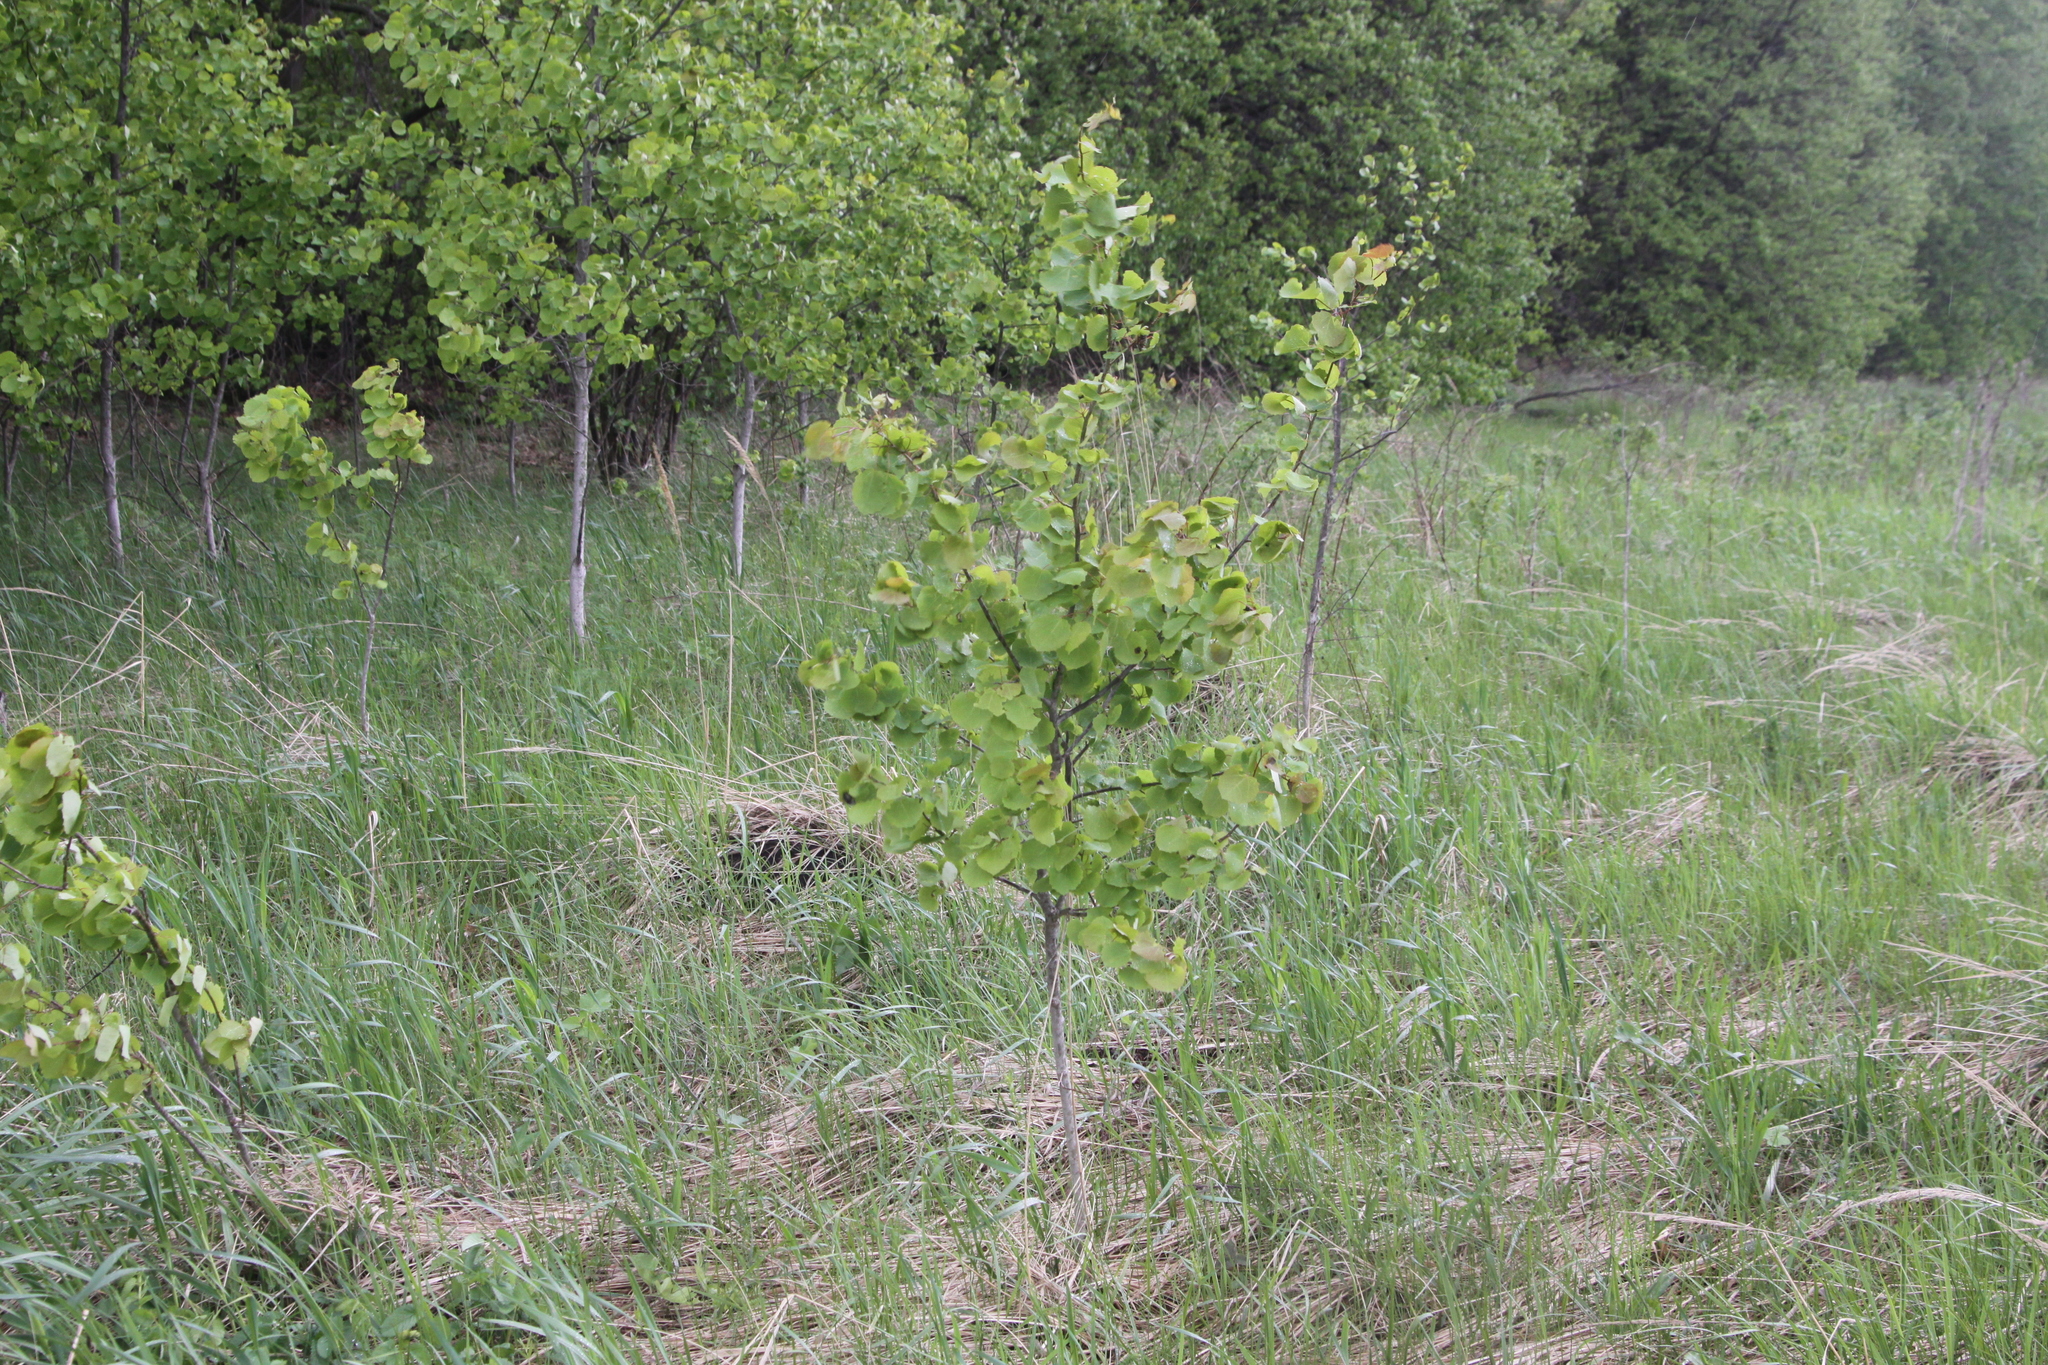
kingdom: Plantae
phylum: Tracheophyta
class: Magnoliopsida
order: Malpighiales
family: Salicaceae
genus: Populus
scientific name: Populus tremula
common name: European aspen
